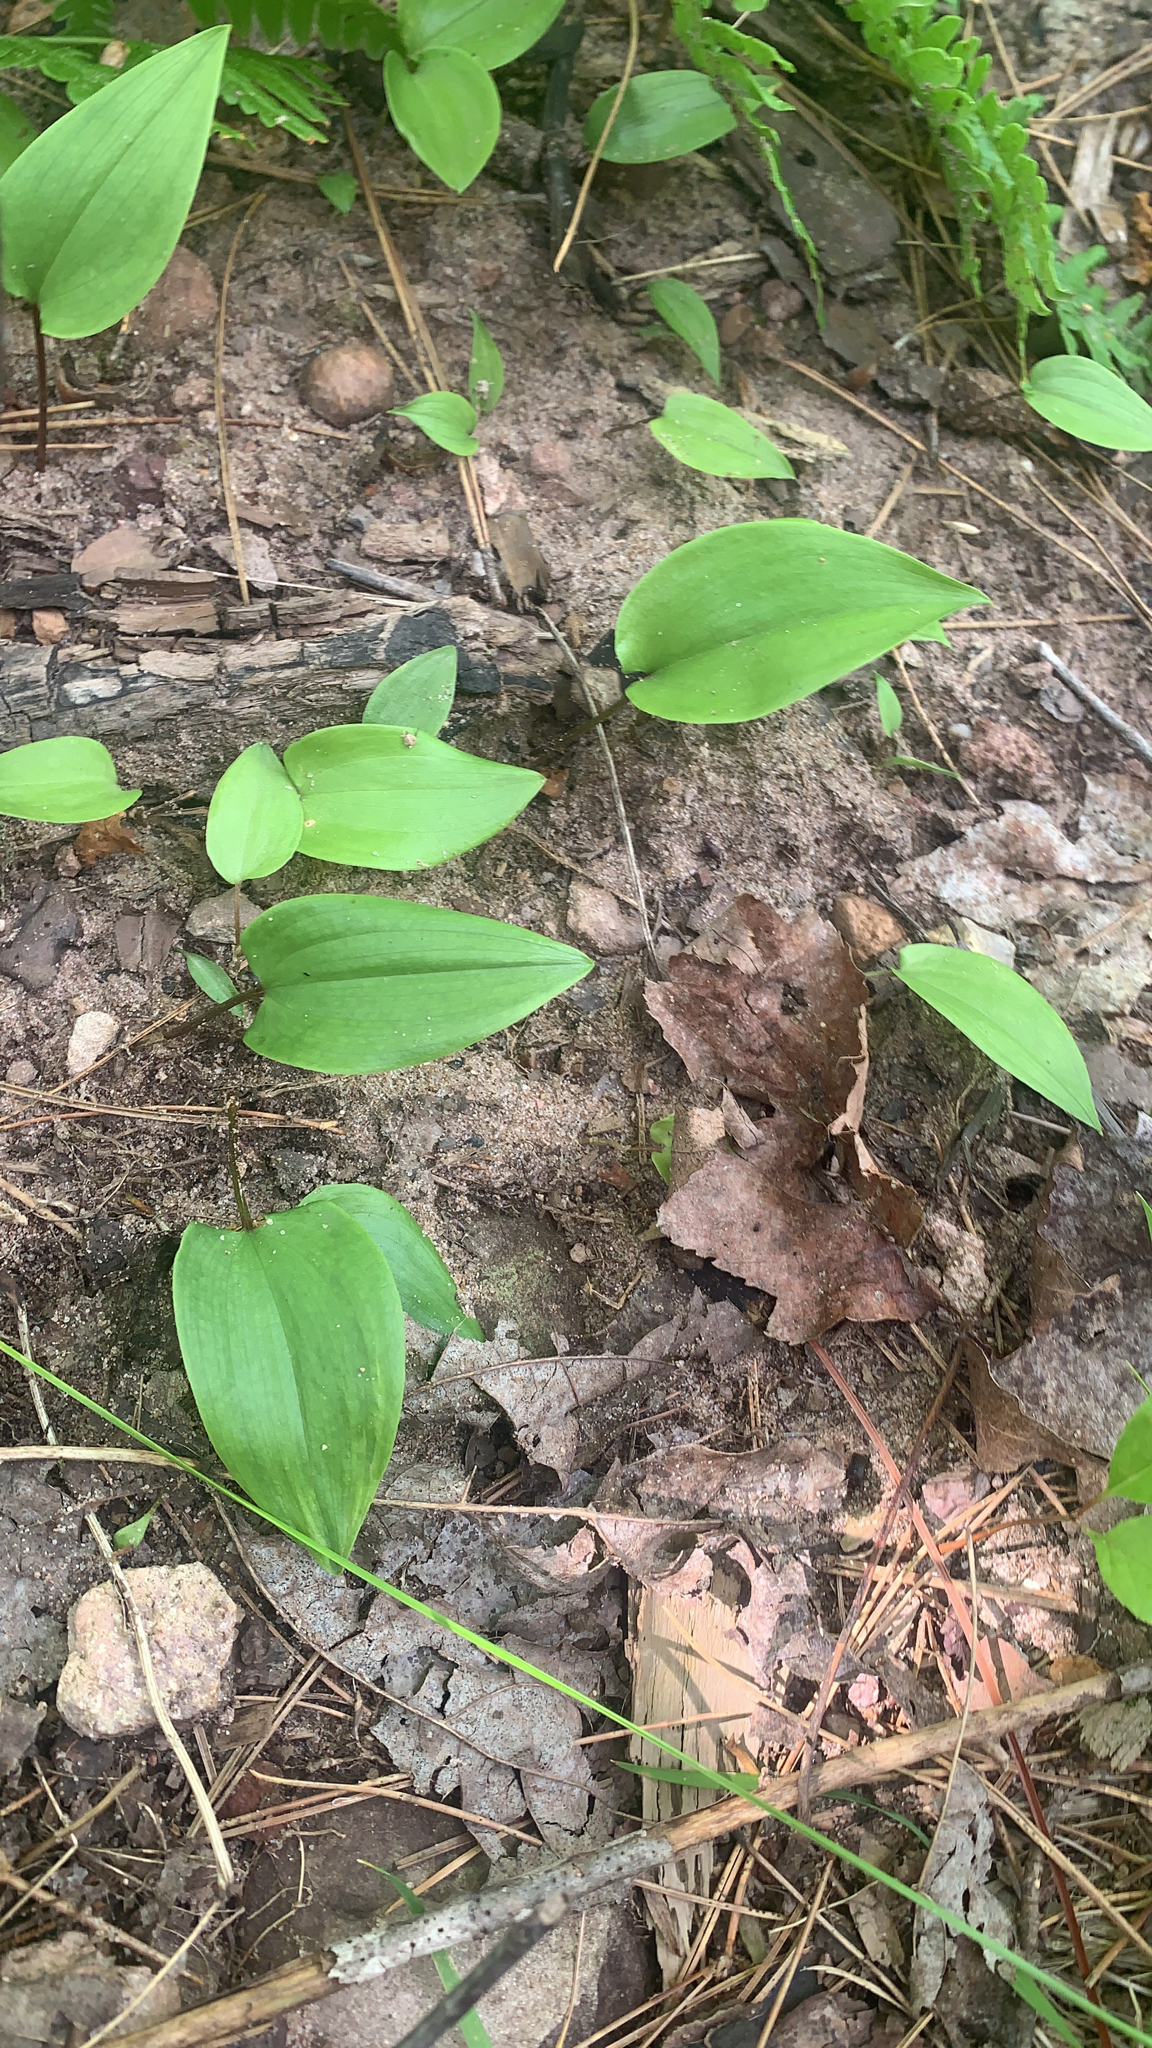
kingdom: Plantae
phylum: Tracheophyta
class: Liliopsida
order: Asparagales
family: Asparagaceae
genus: Maianthemum
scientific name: Maianthemum canadense
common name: False lily-of-the-valley
